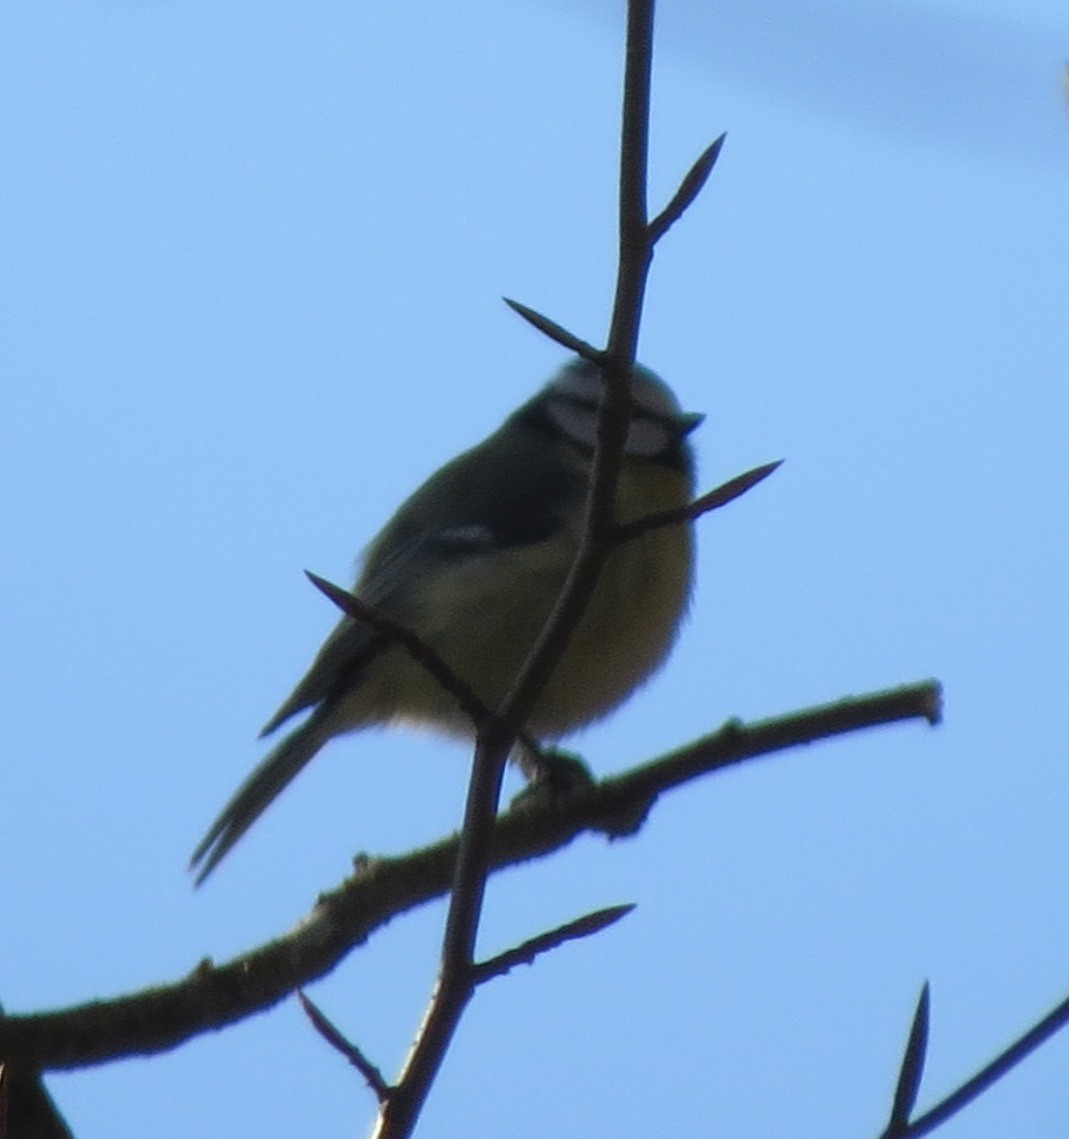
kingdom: Animalia
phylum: Chordata
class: Aves
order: Passeriformes
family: Paridae
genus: Cyanistes
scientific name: Cyanistes caeruleus
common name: Eurasian blue tit
